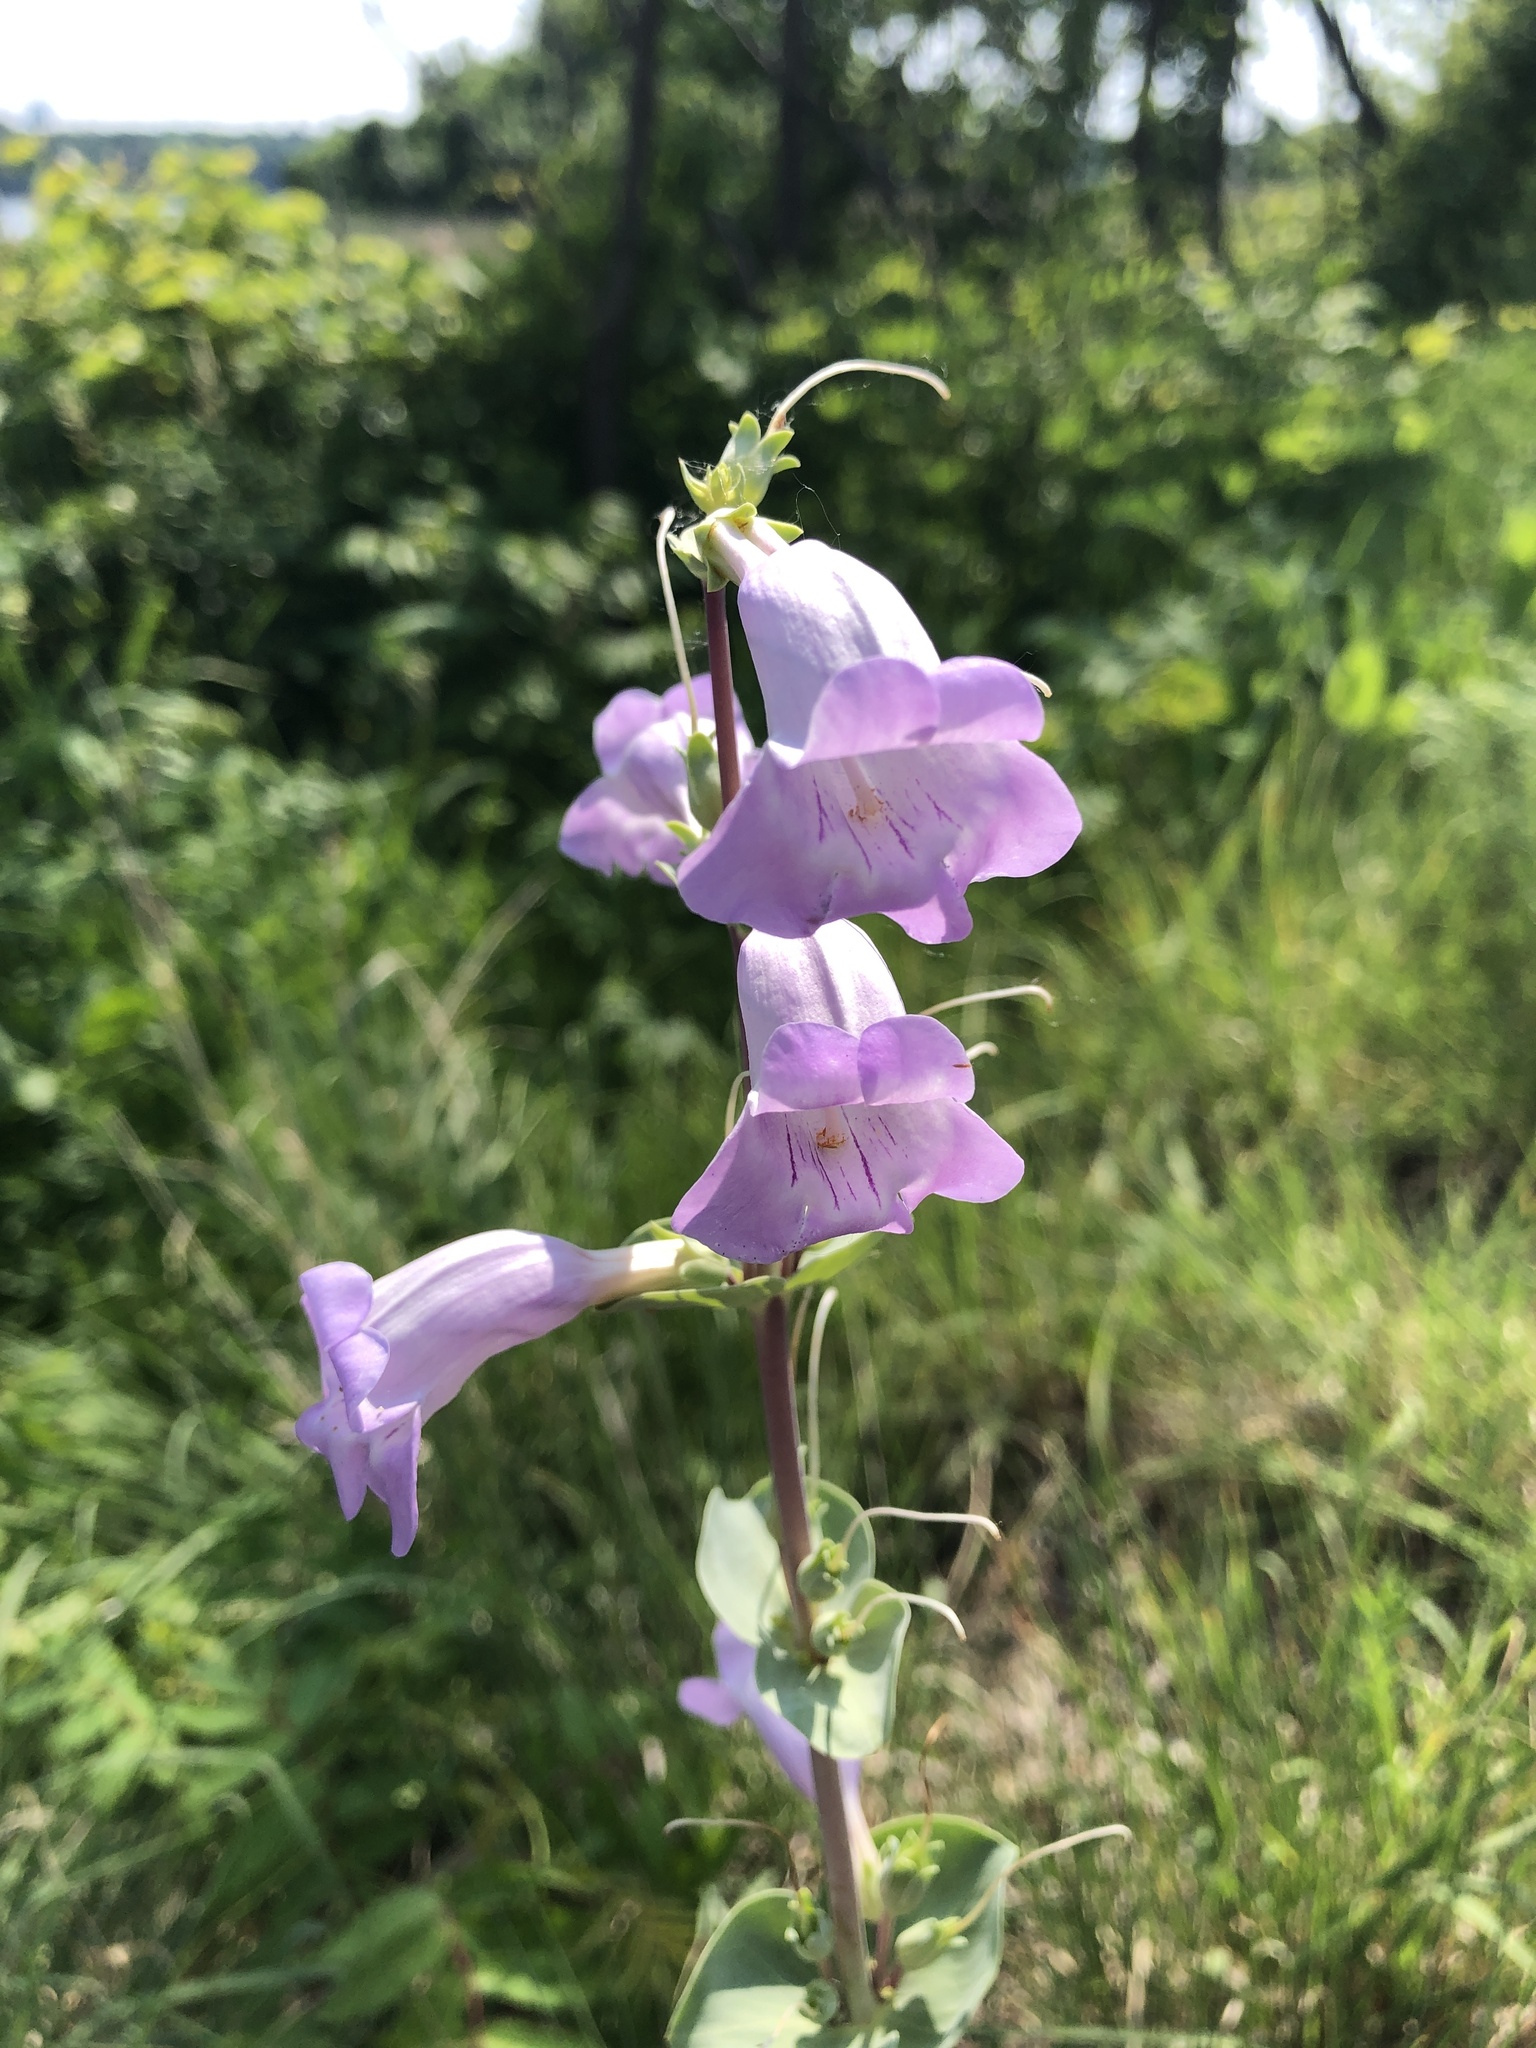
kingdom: Plantae
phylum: Tracheophyta
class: Magnoliopsida
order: Lamiales
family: Plantaginaceae
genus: Penstemon
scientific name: Penstemon
